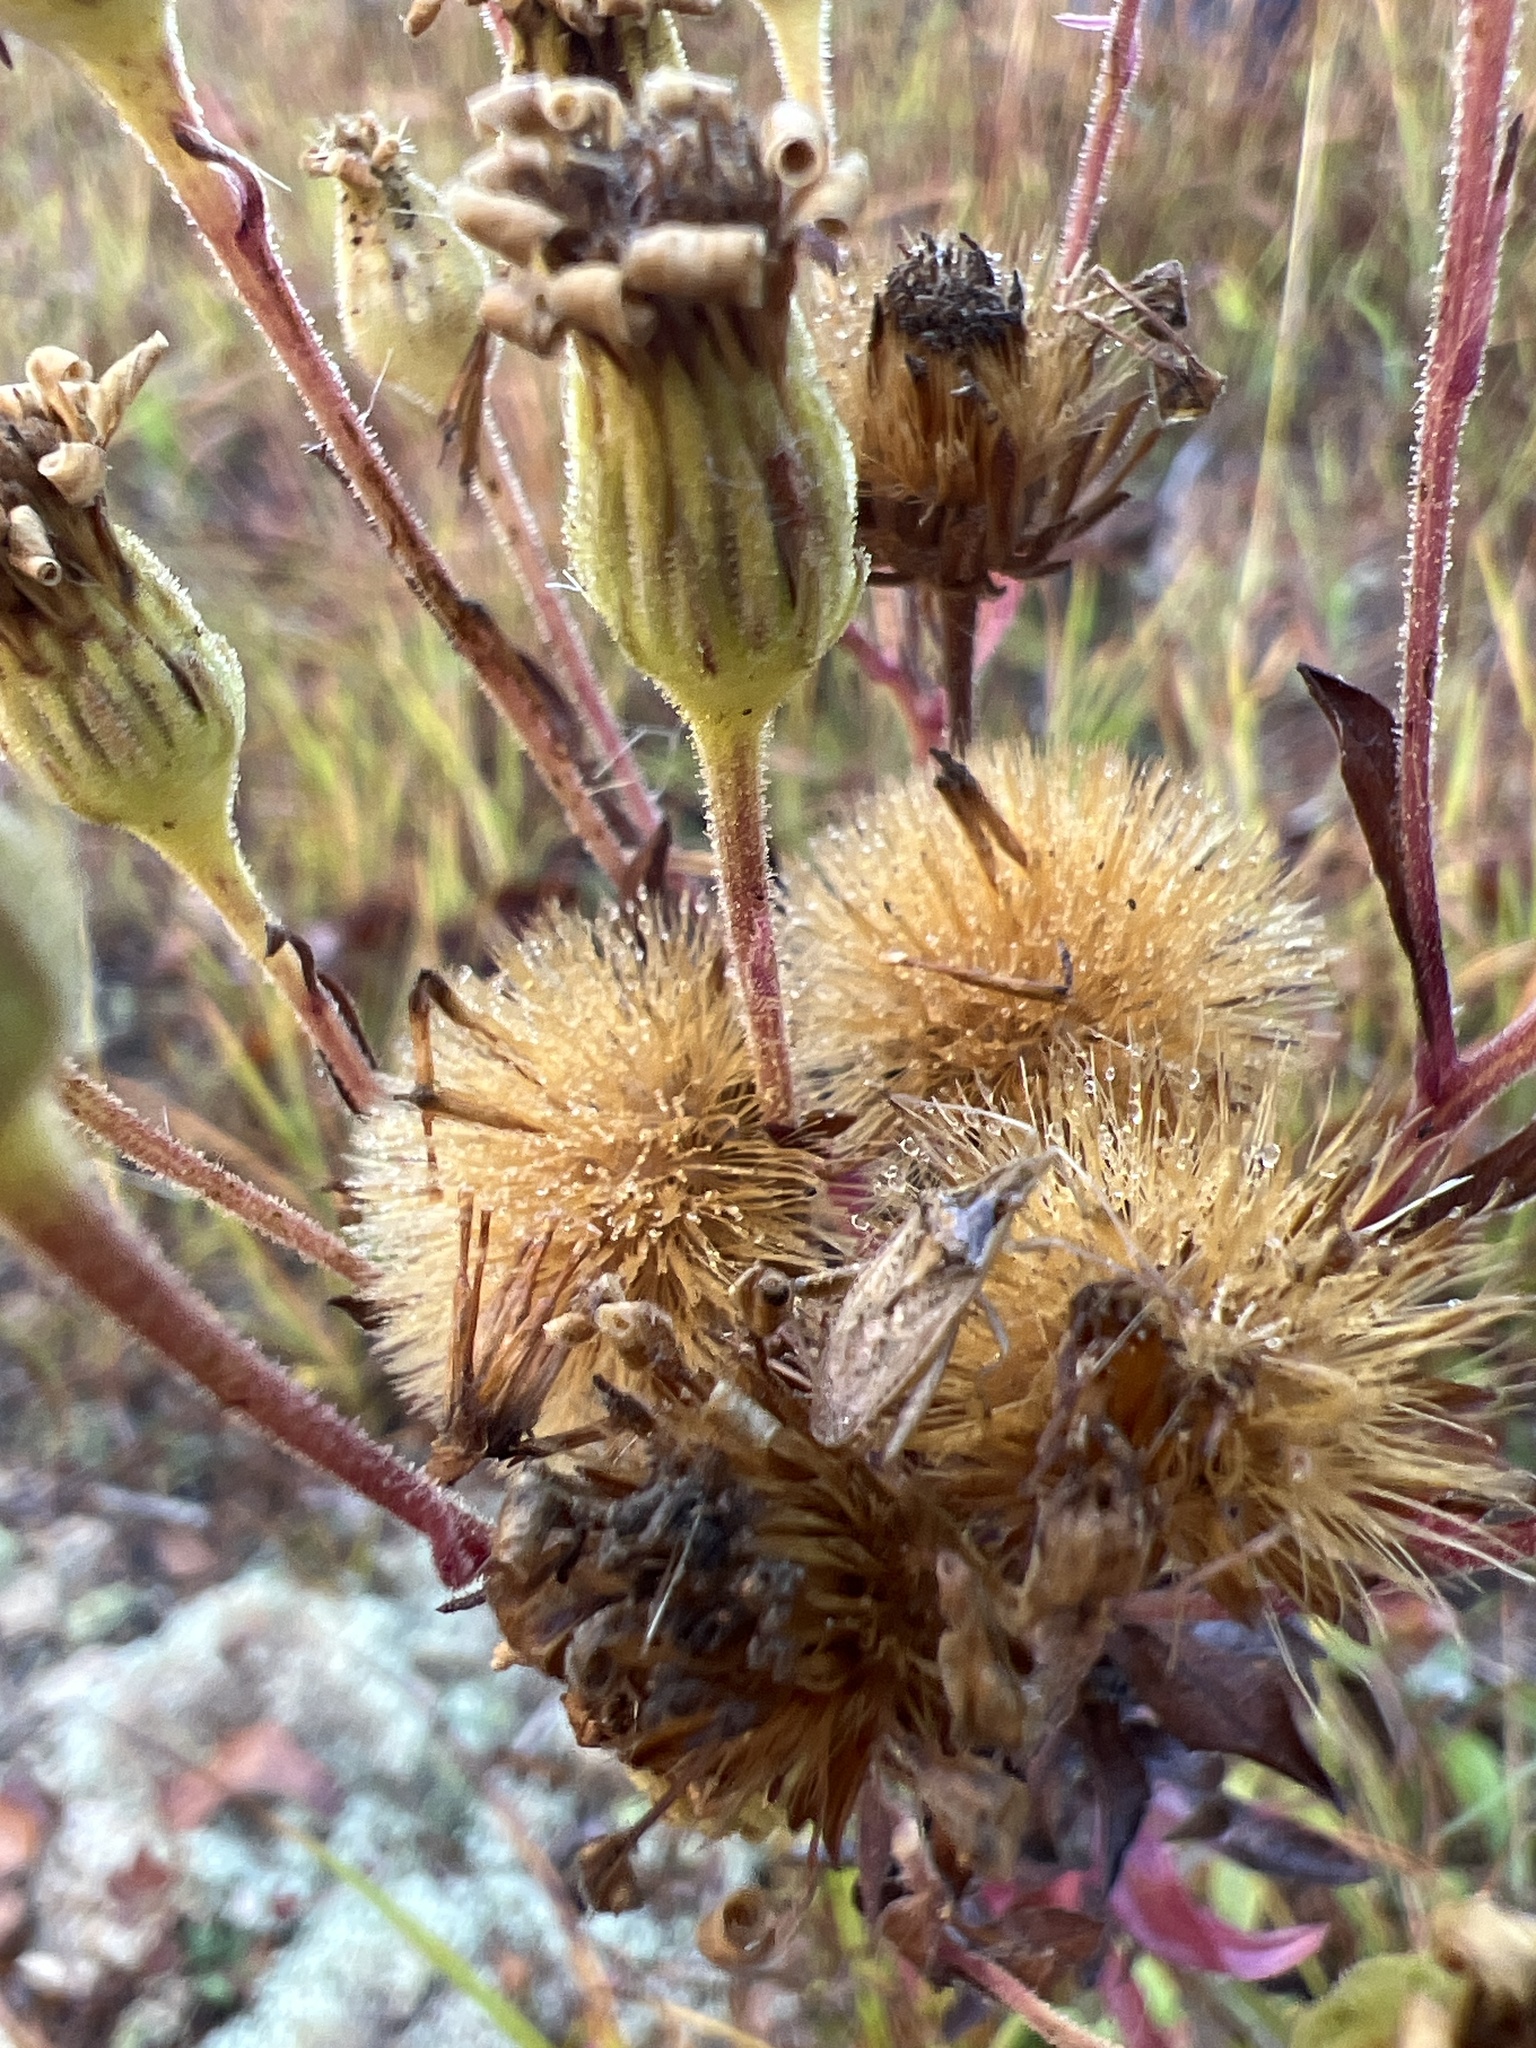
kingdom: Plantae
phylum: Tracheophyta
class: Magnoliopsida
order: Asterales
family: Asteraceae
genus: Chrysopsis
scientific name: Chrysopsis mariana
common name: Maryland golden-aster
